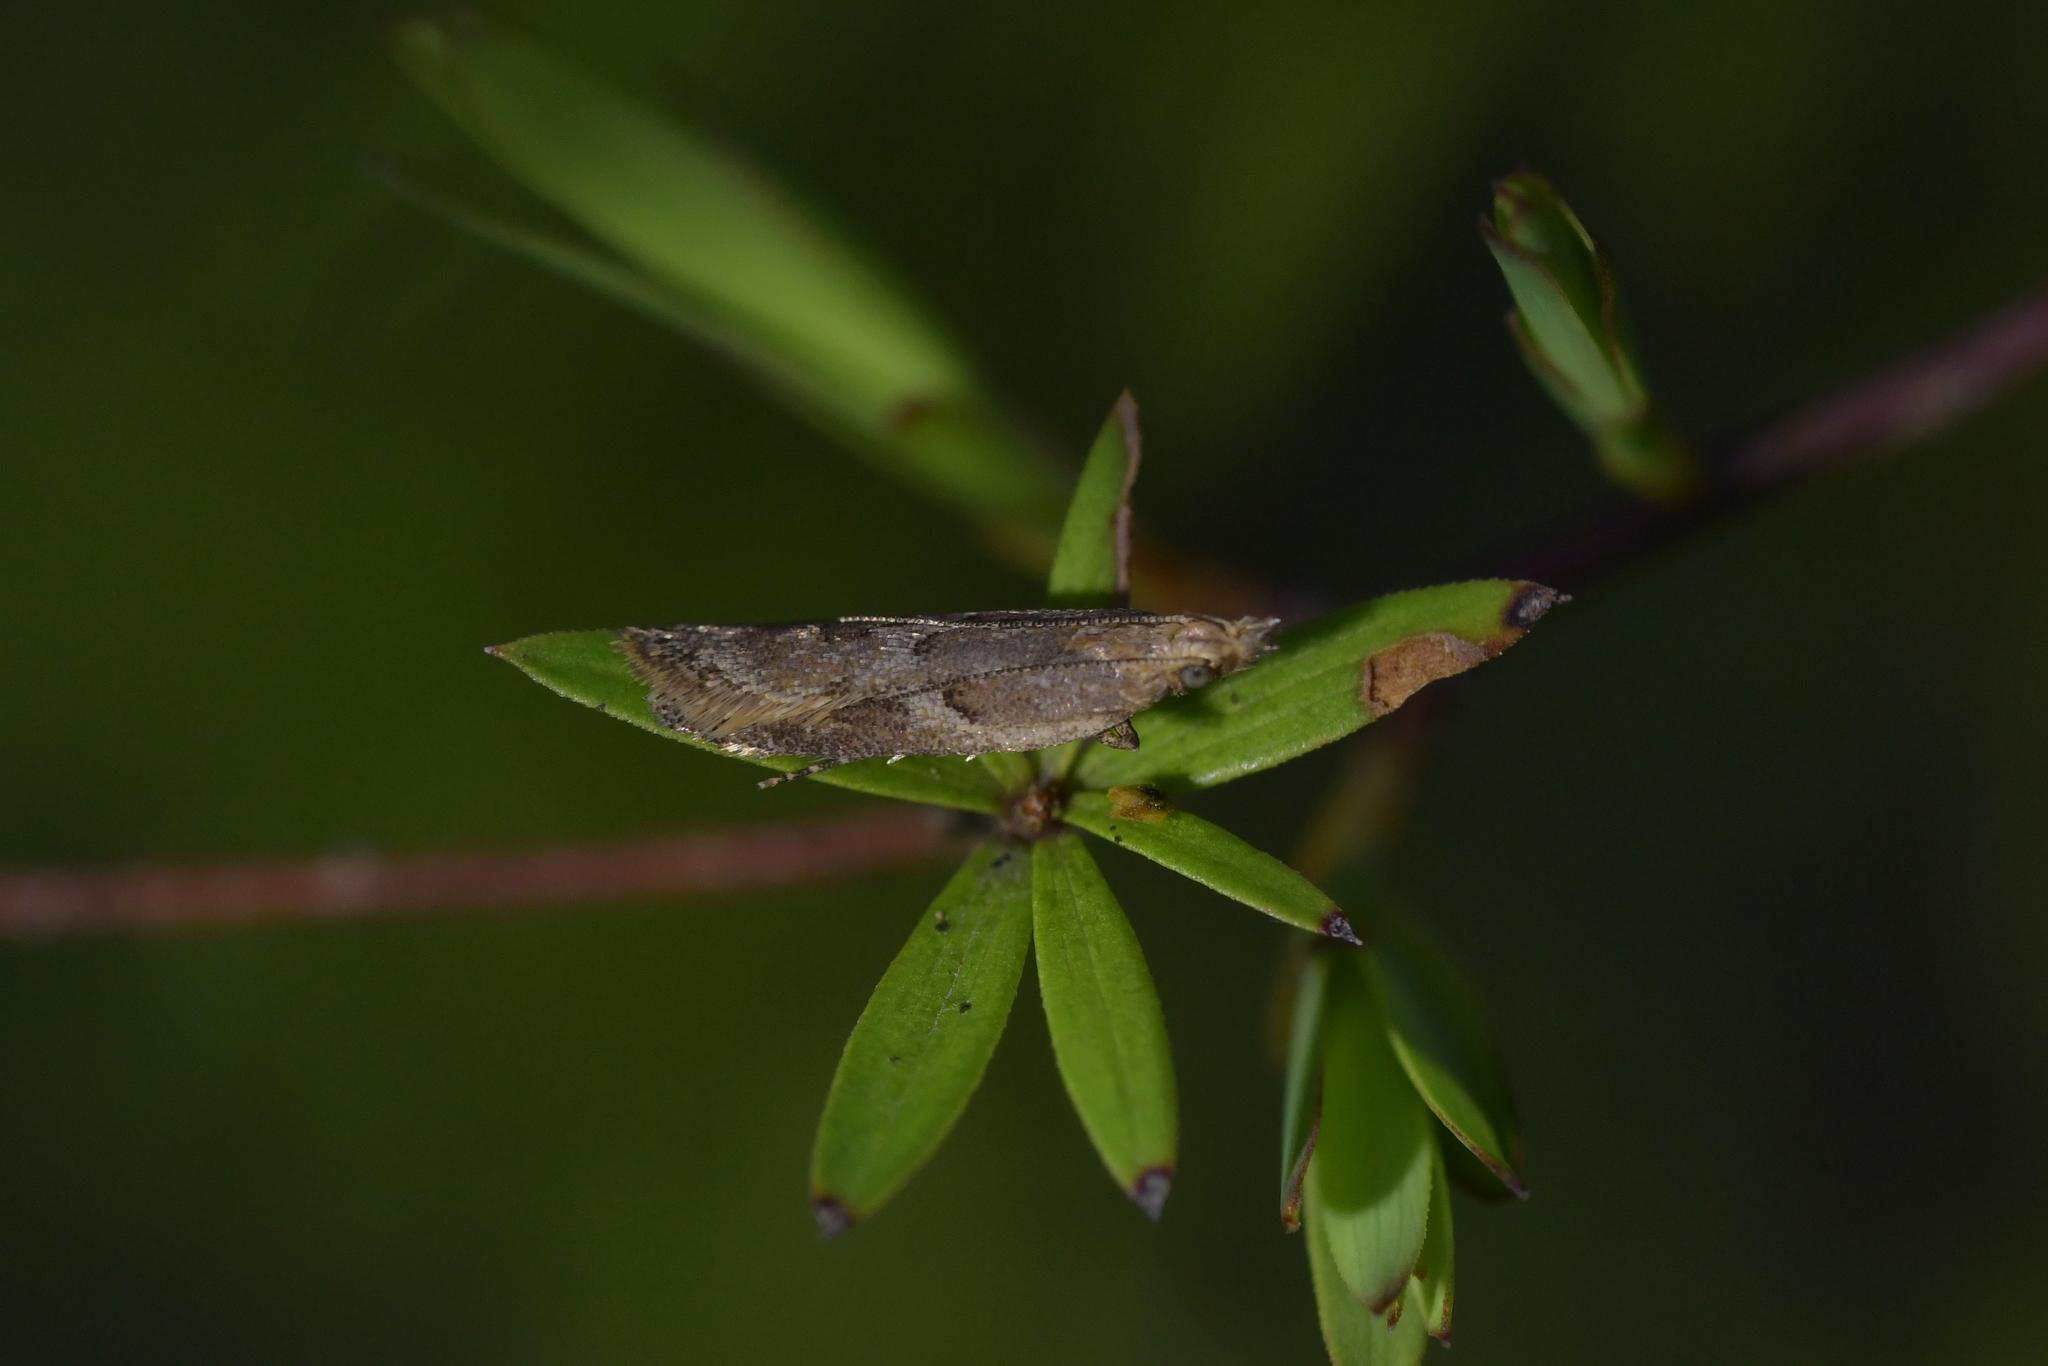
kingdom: Animalia
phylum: Arthropoda
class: Insecta
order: Lepidoptera
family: Oecophoridae
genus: Thamnosara
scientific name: Thamnosara sublitella
